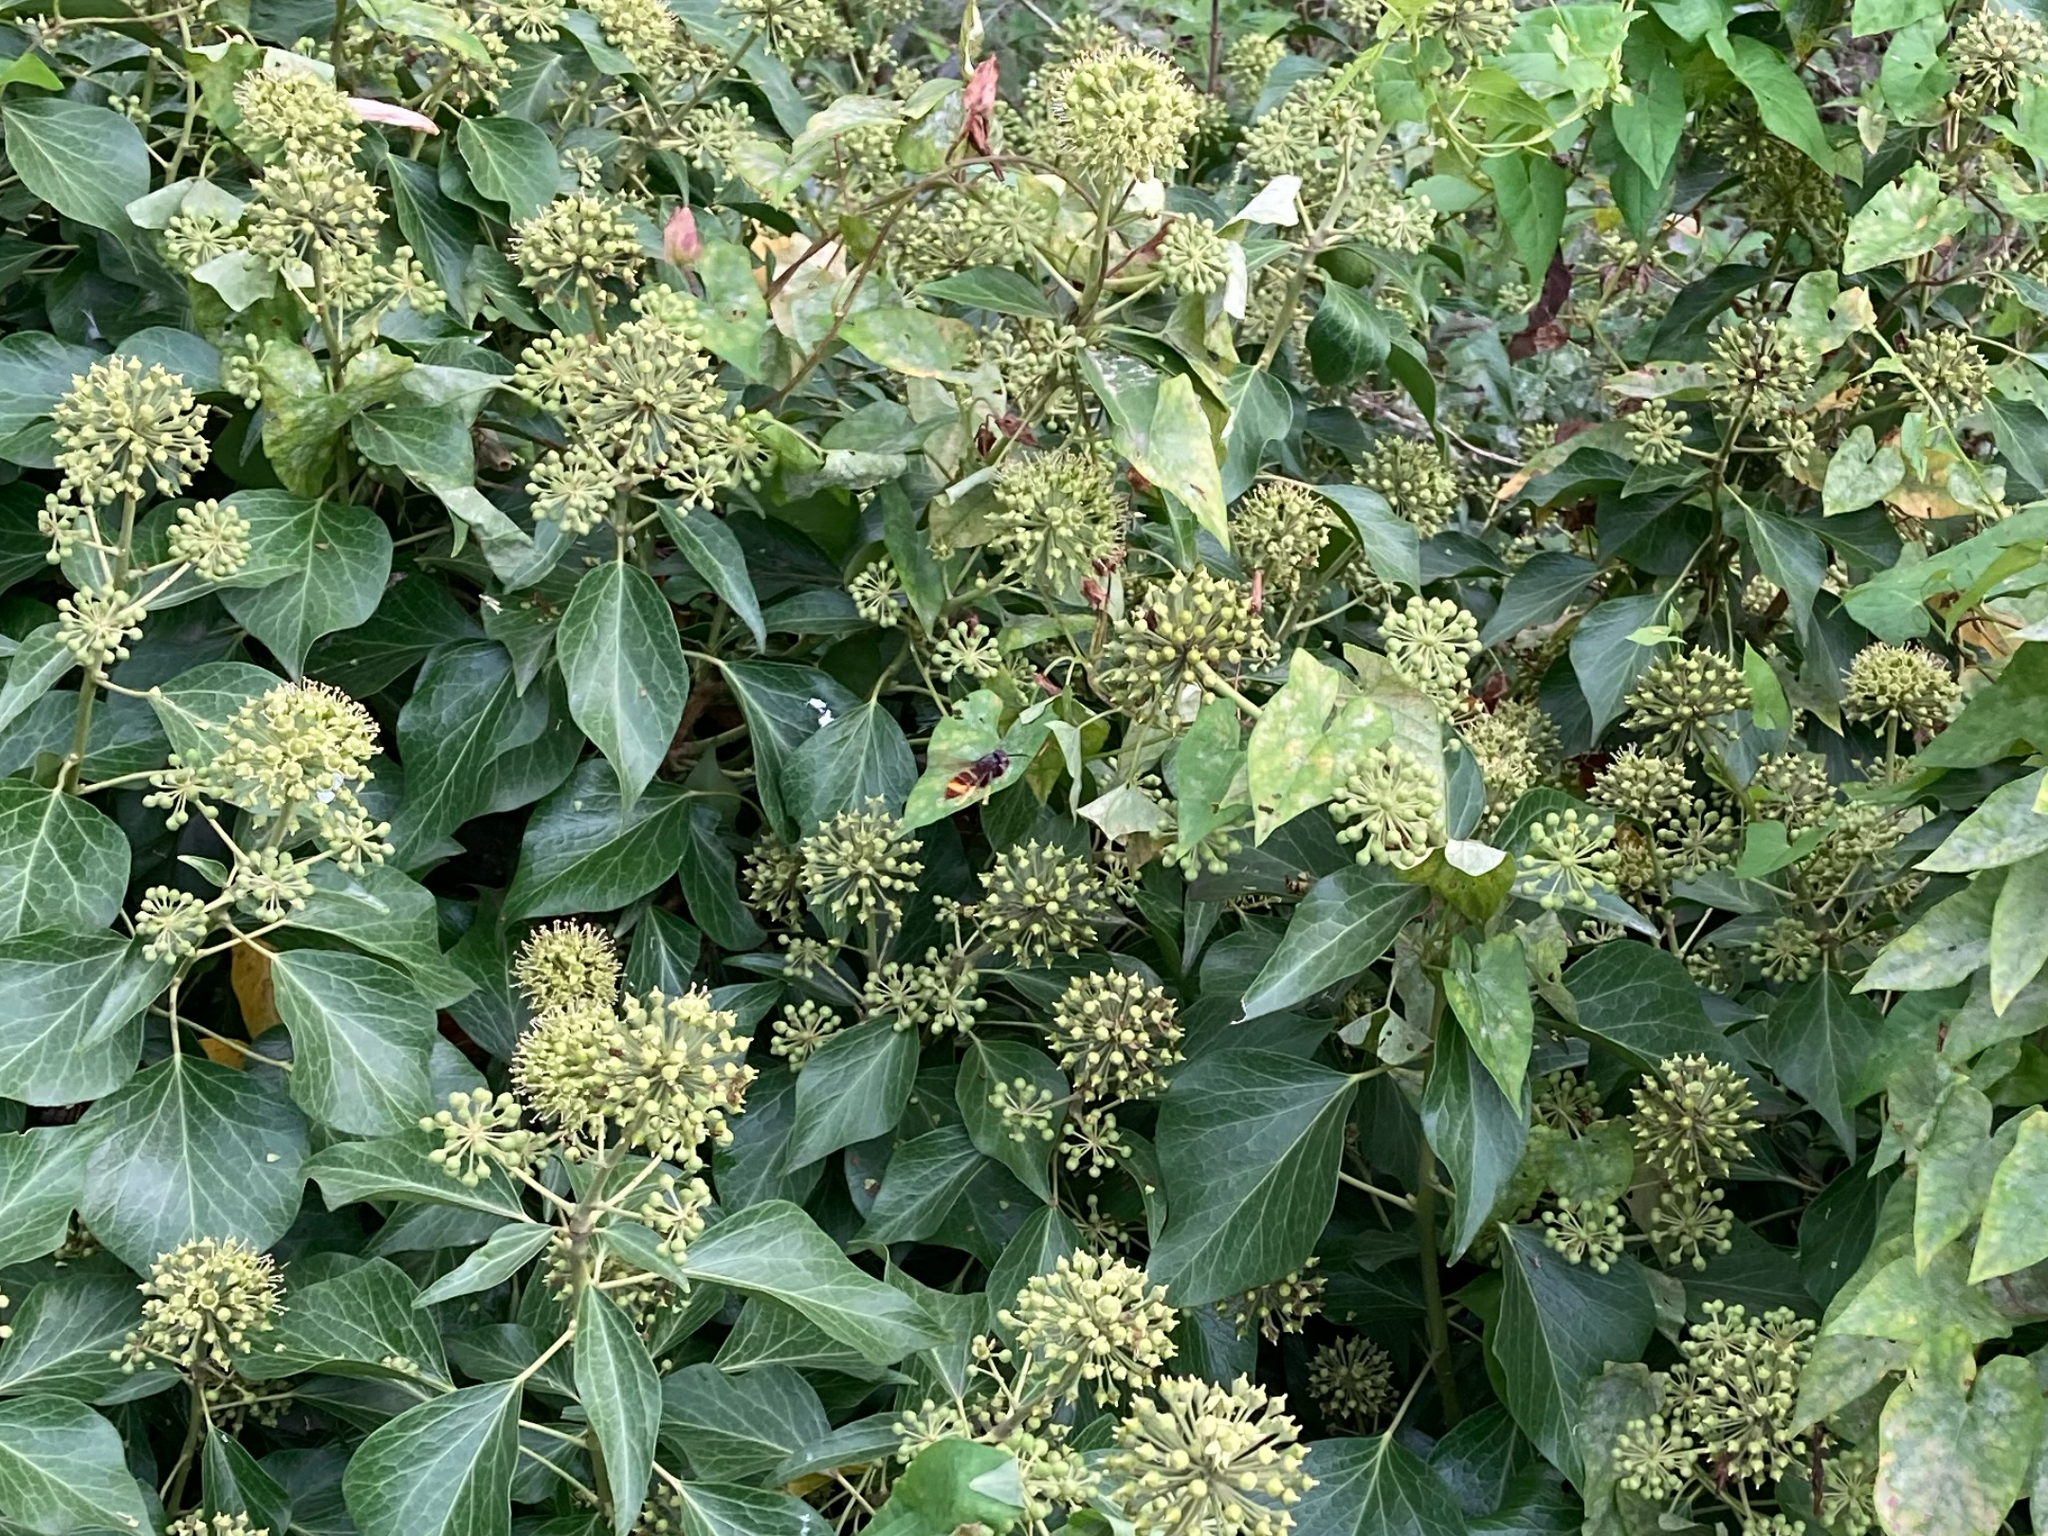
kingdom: Animalia
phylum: Arthropoda
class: Insecta
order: Hymenoptera
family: Vespidae
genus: Vespa
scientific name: Vespa velutina
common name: Asian hornet
